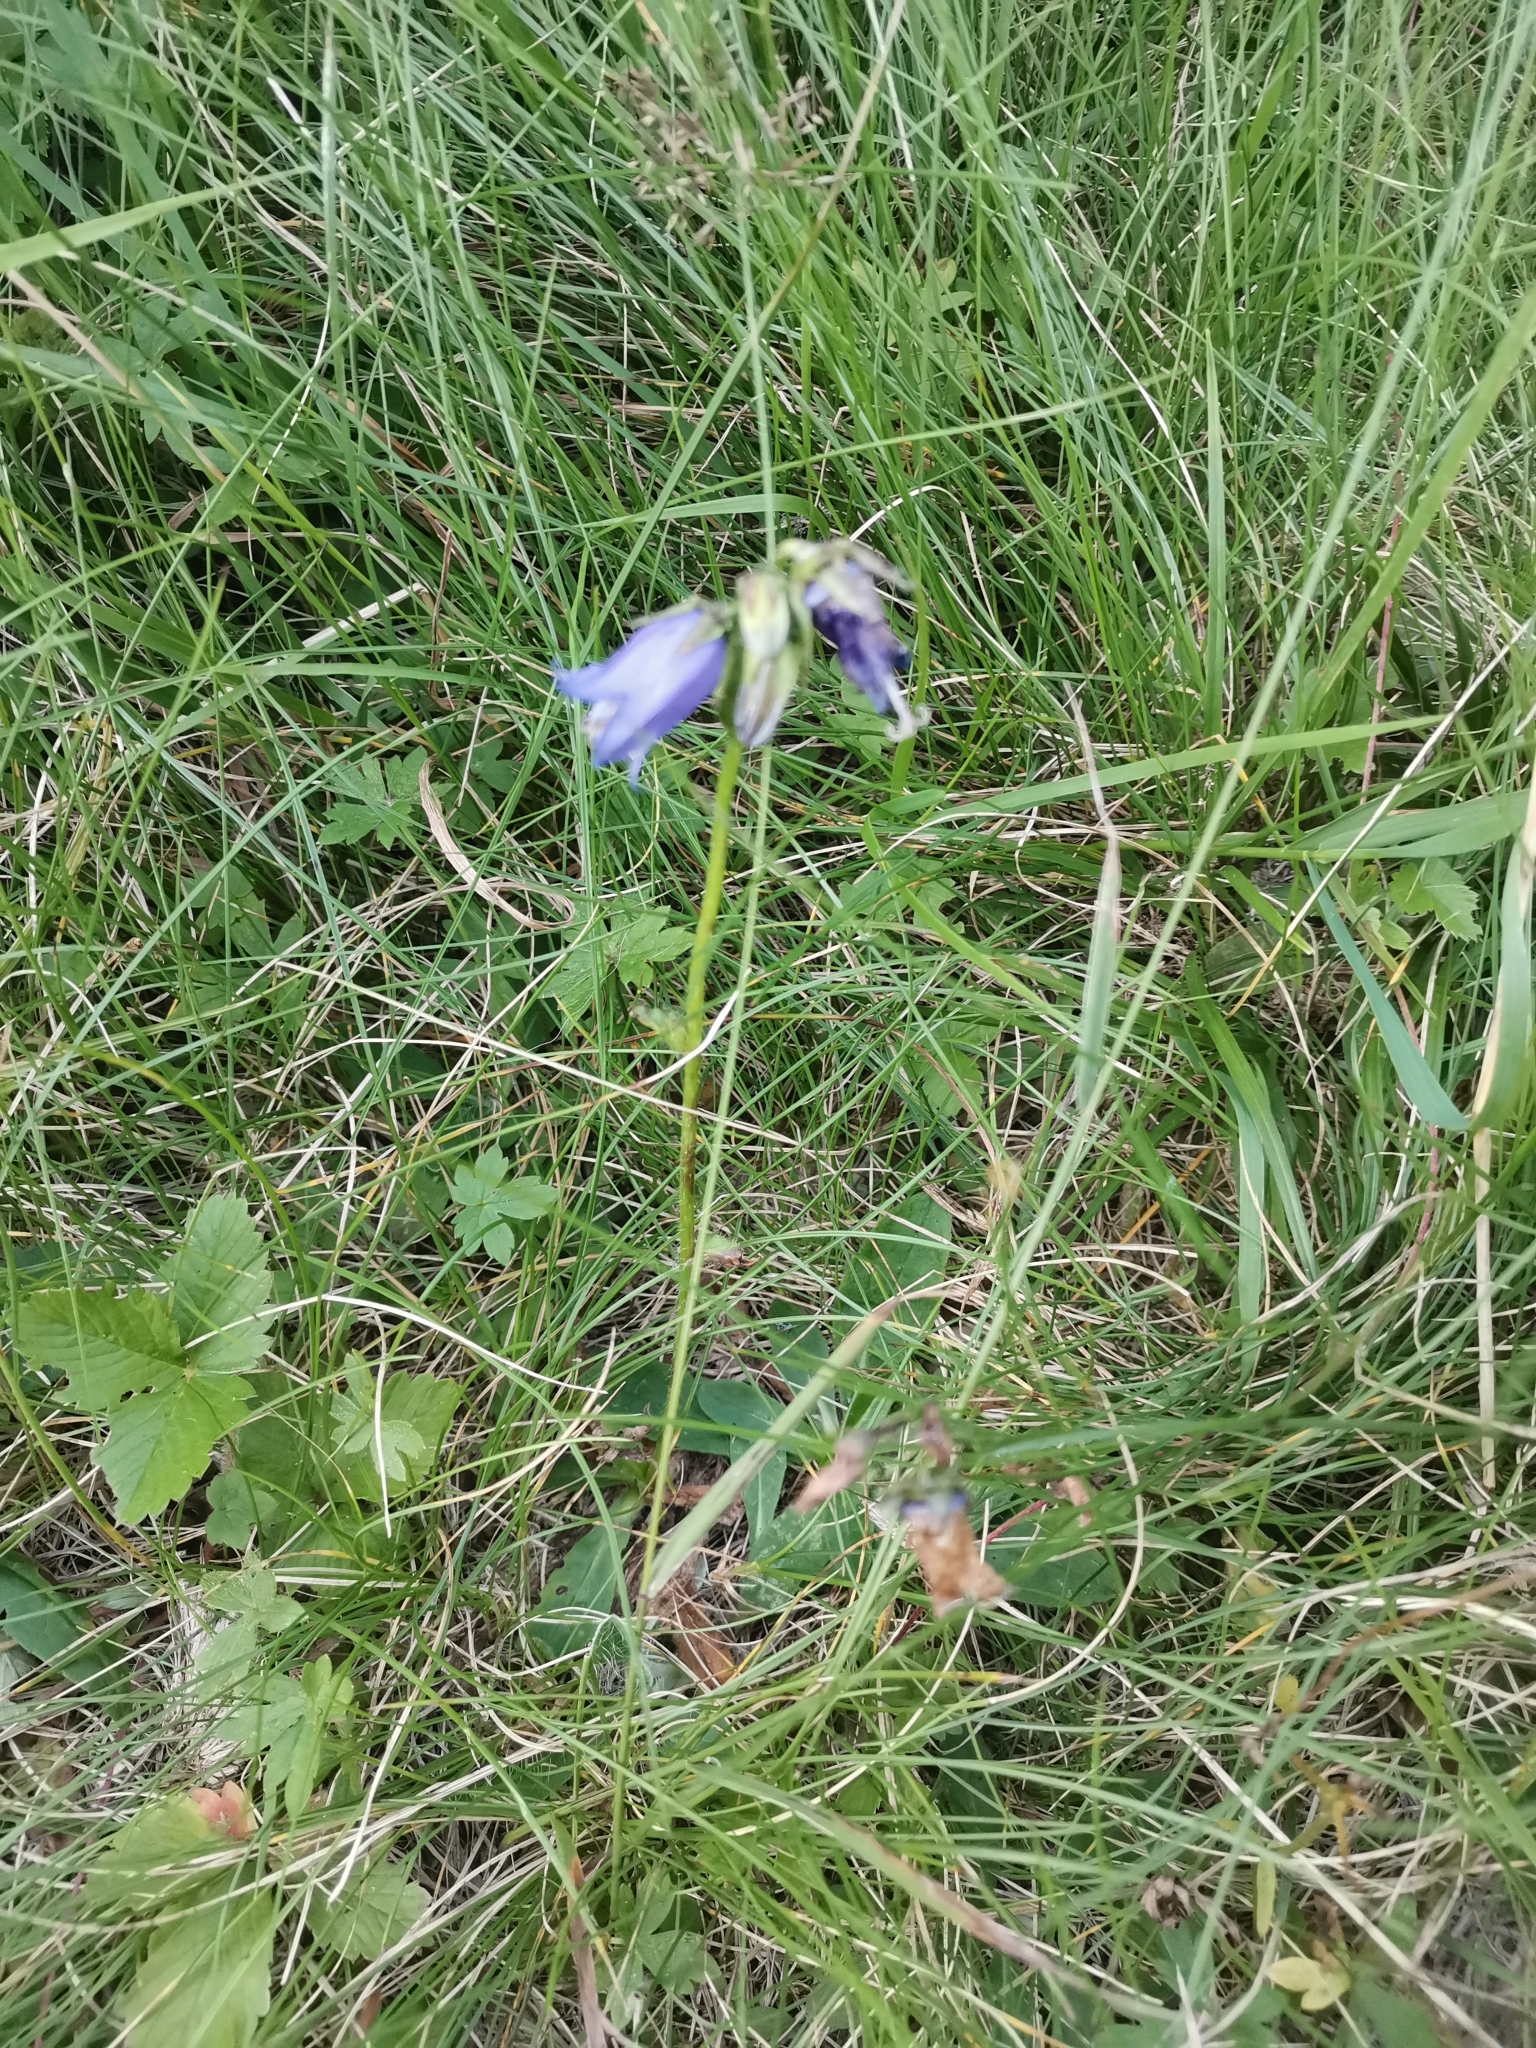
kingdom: Plantae
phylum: Tracheophyta
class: Magnoliopsida
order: Asterales
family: Campanulaceae
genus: Campanula
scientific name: Campanula barbata
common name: Bearded bellflower
